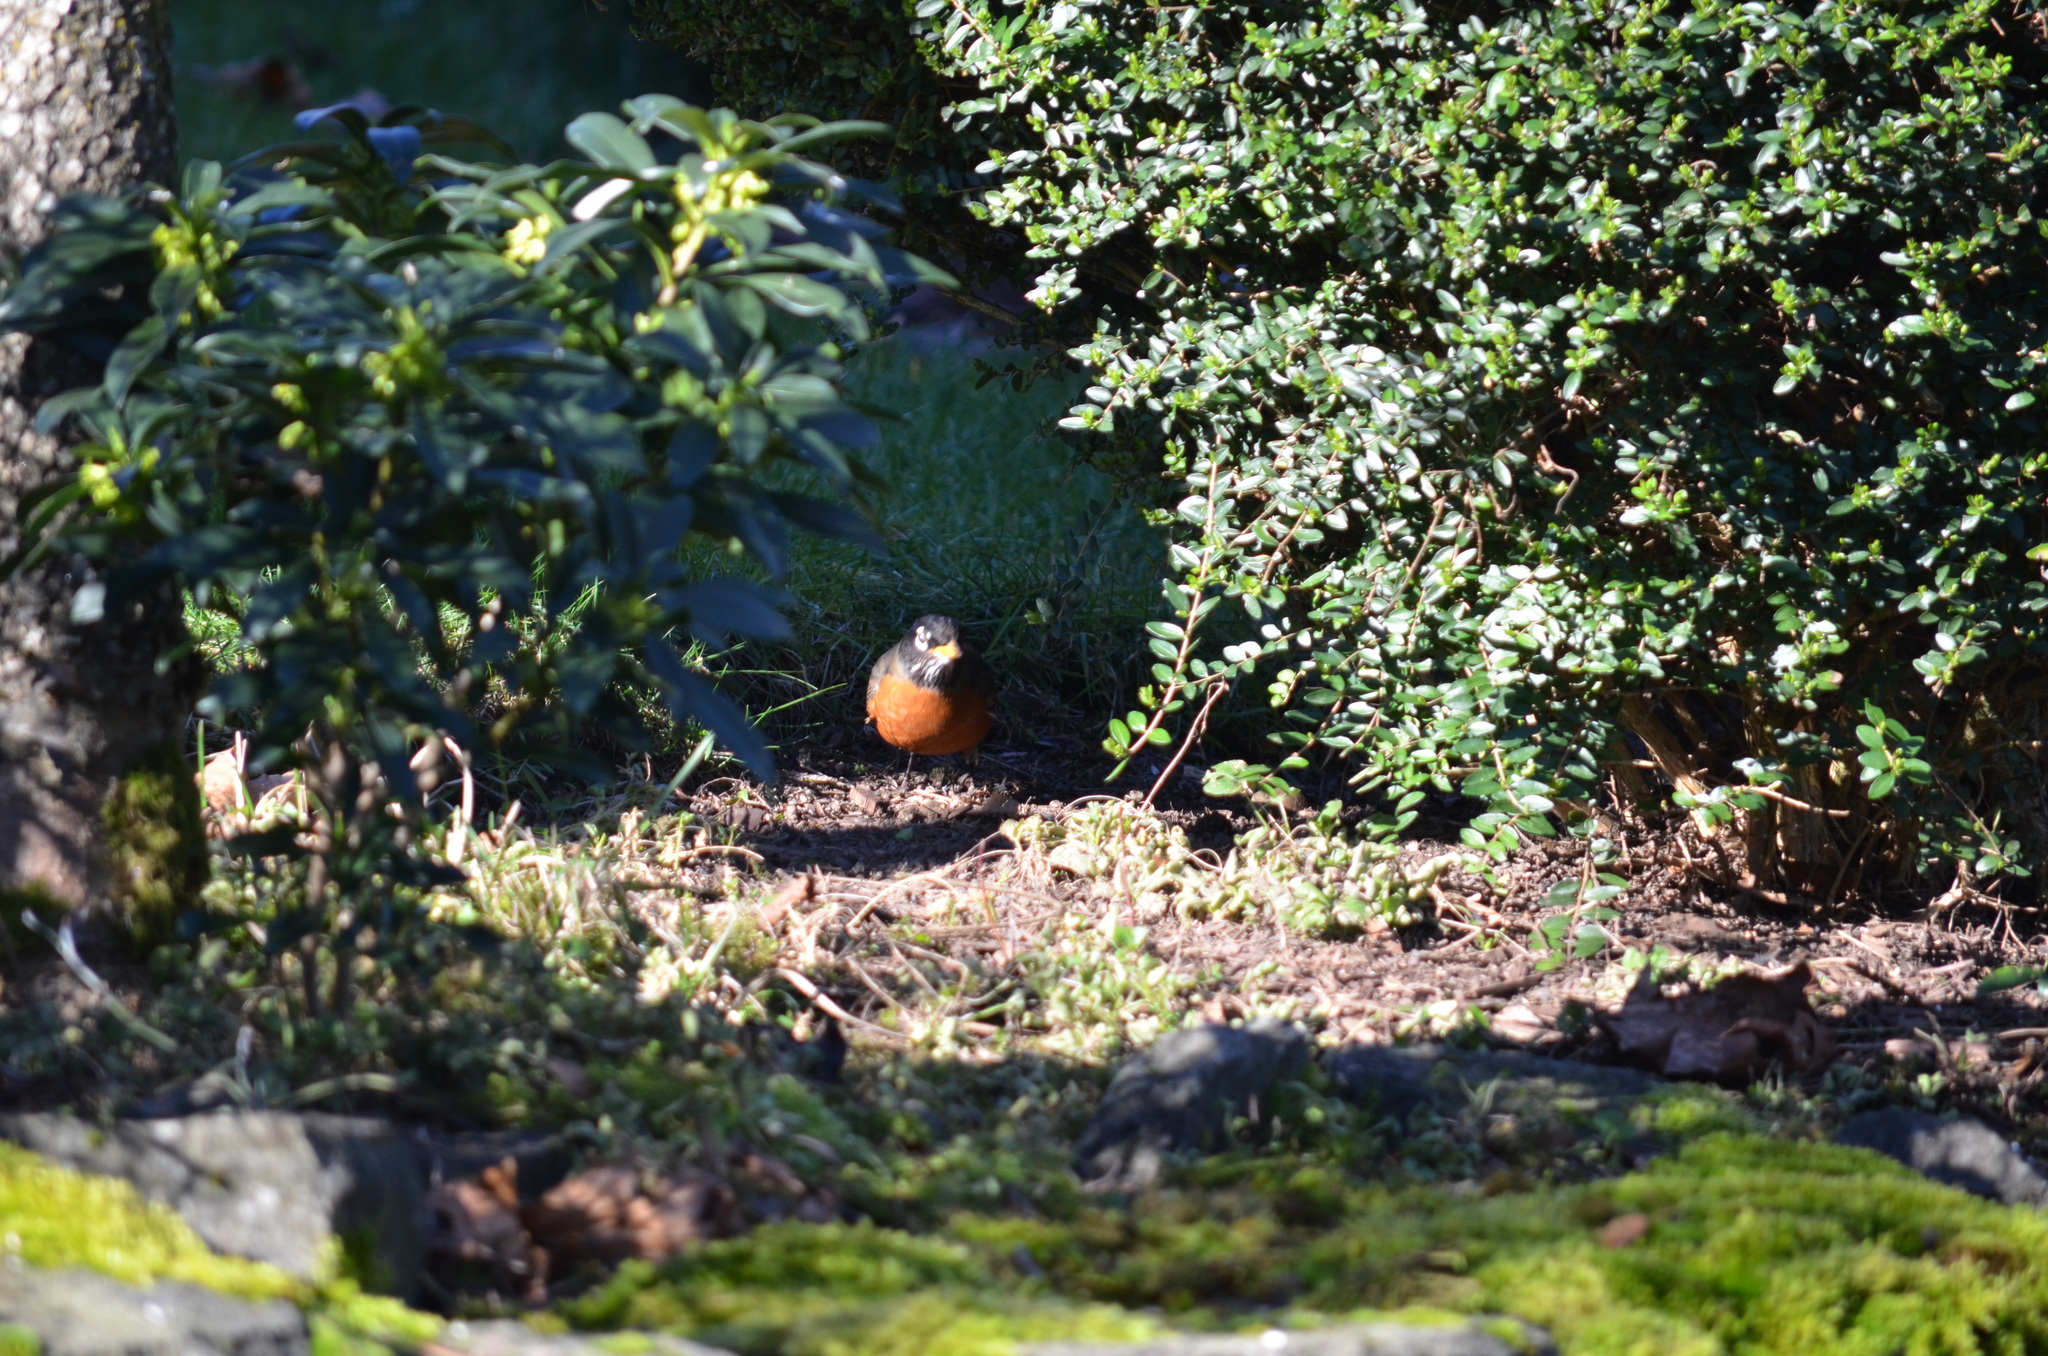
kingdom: Animalia
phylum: Chordata
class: Aves
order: Passeriformes
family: Turdidae
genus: Turdus
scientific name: Turdus migratorius
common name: American robin
